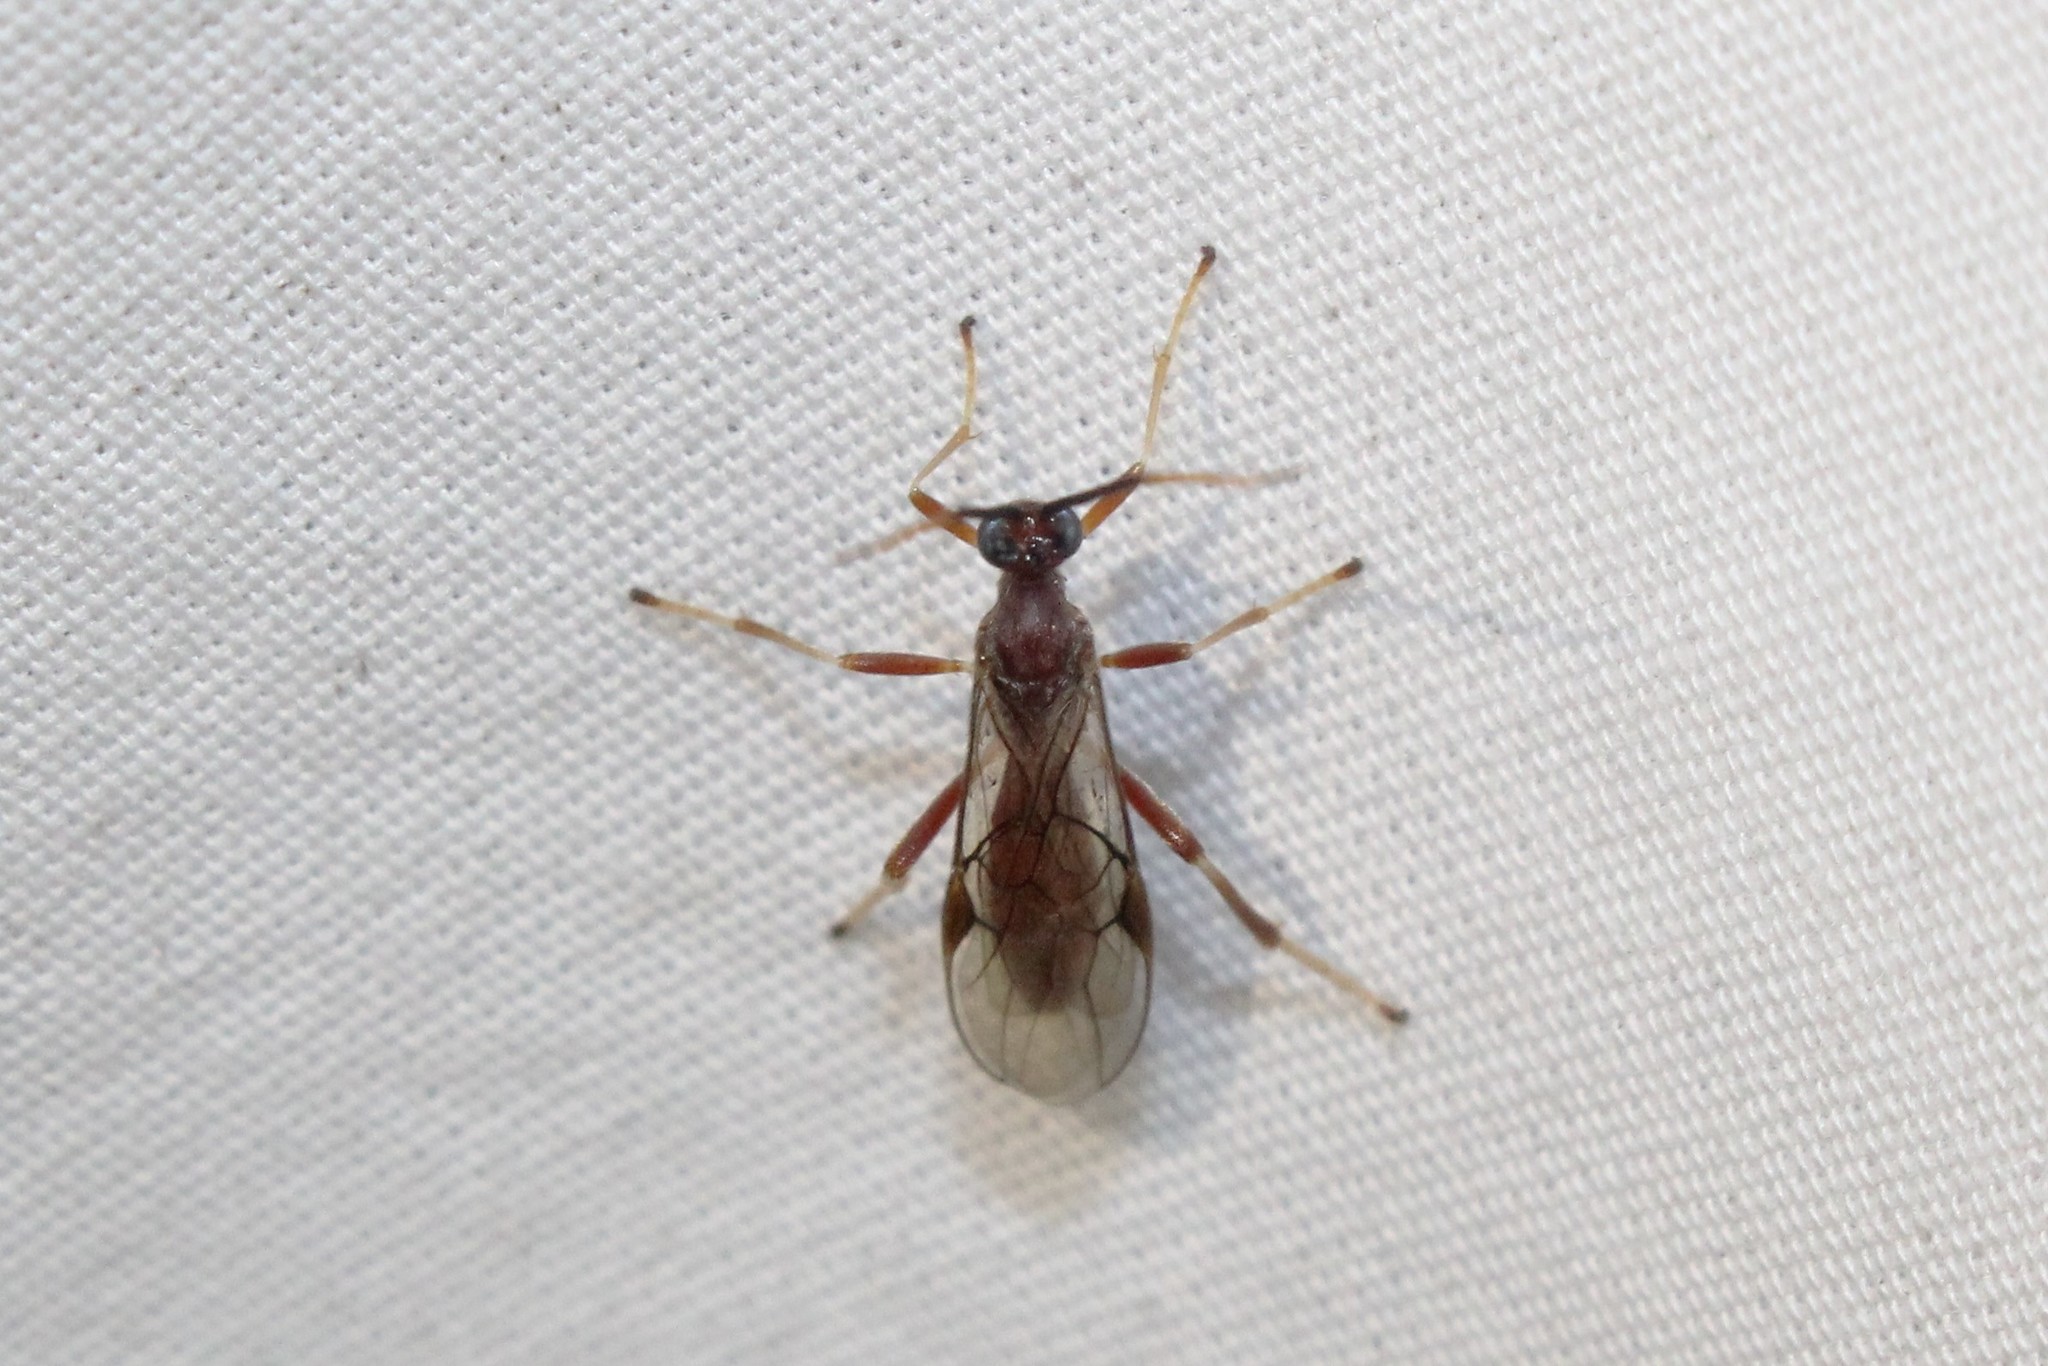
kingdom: Animalia
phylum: Arthropoda
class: Insecta
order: Hymenoptera
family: Braconidae
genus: Aleiodes
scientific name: Aleiodes quebecensis
